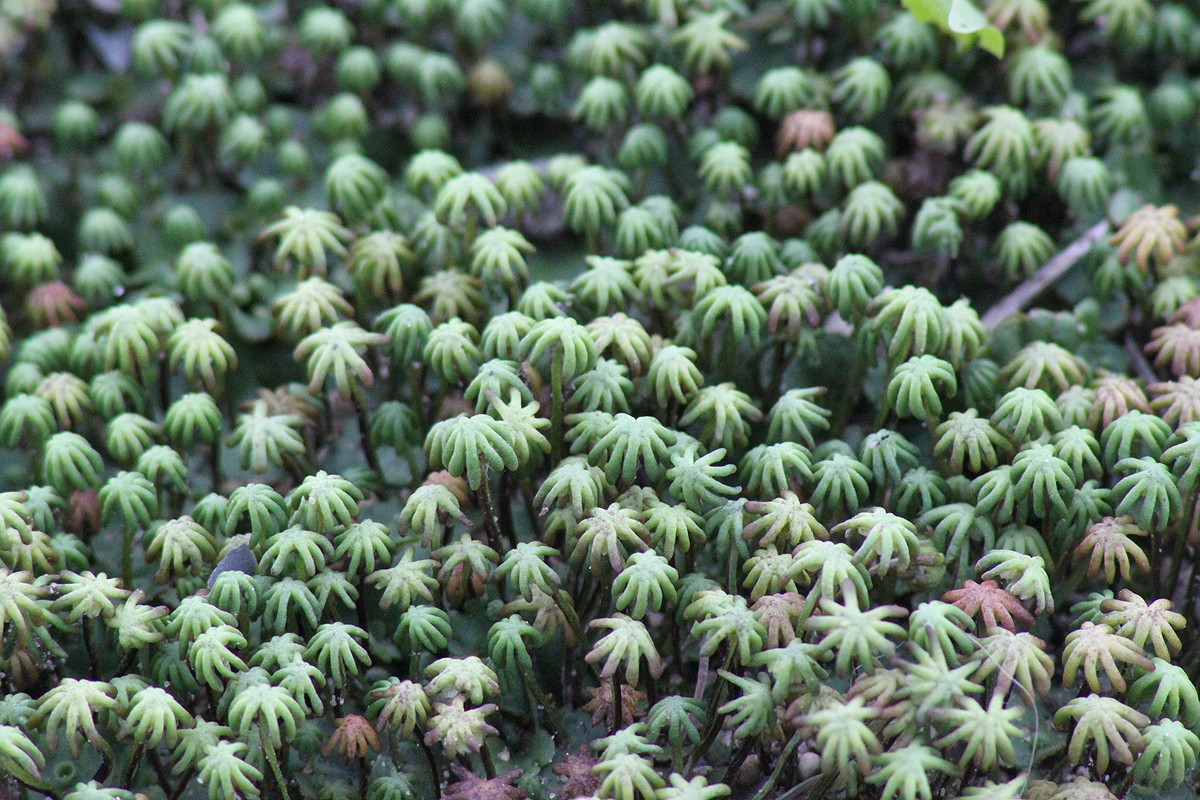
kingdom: Plantae
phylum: Marchantiophyta
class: Marchantiopsida
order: Marchantiales
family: Marchantiaceae
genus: Marchantia
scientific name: Marchantia polymorpha
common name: Common liverwort
